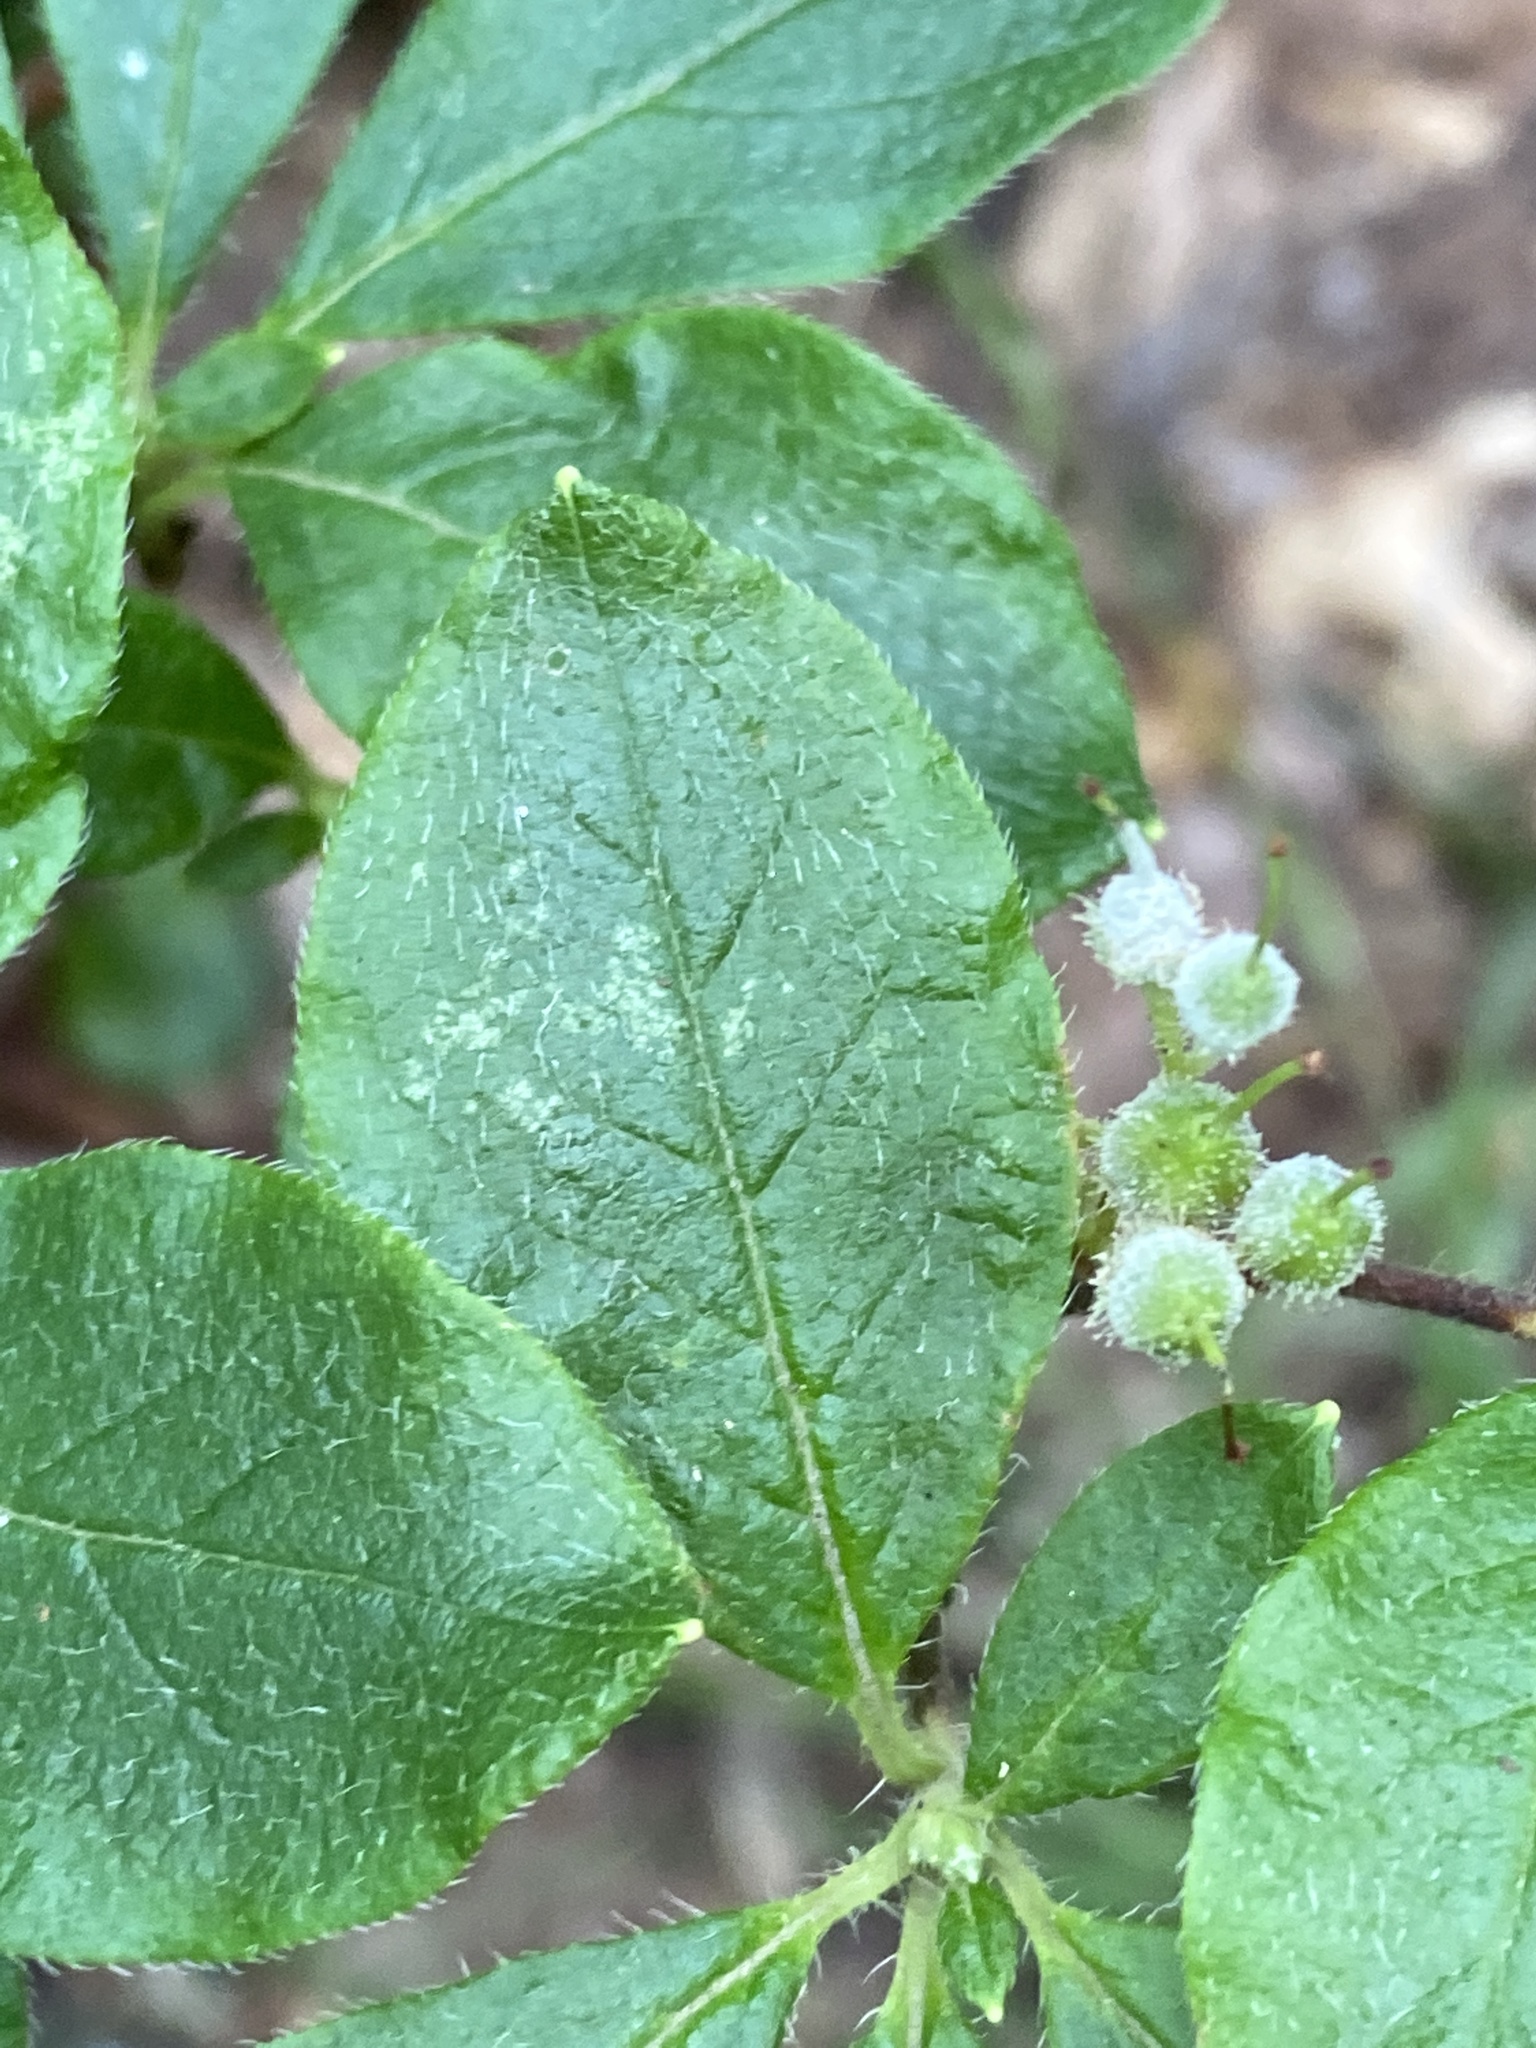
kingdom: Plantae
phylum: Tracheophyta
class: Magnoliopsida
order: Ericales
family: Ericaceae
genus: Rhododendron
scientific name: Rhododendron pilosum
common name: Hairy minniebush
